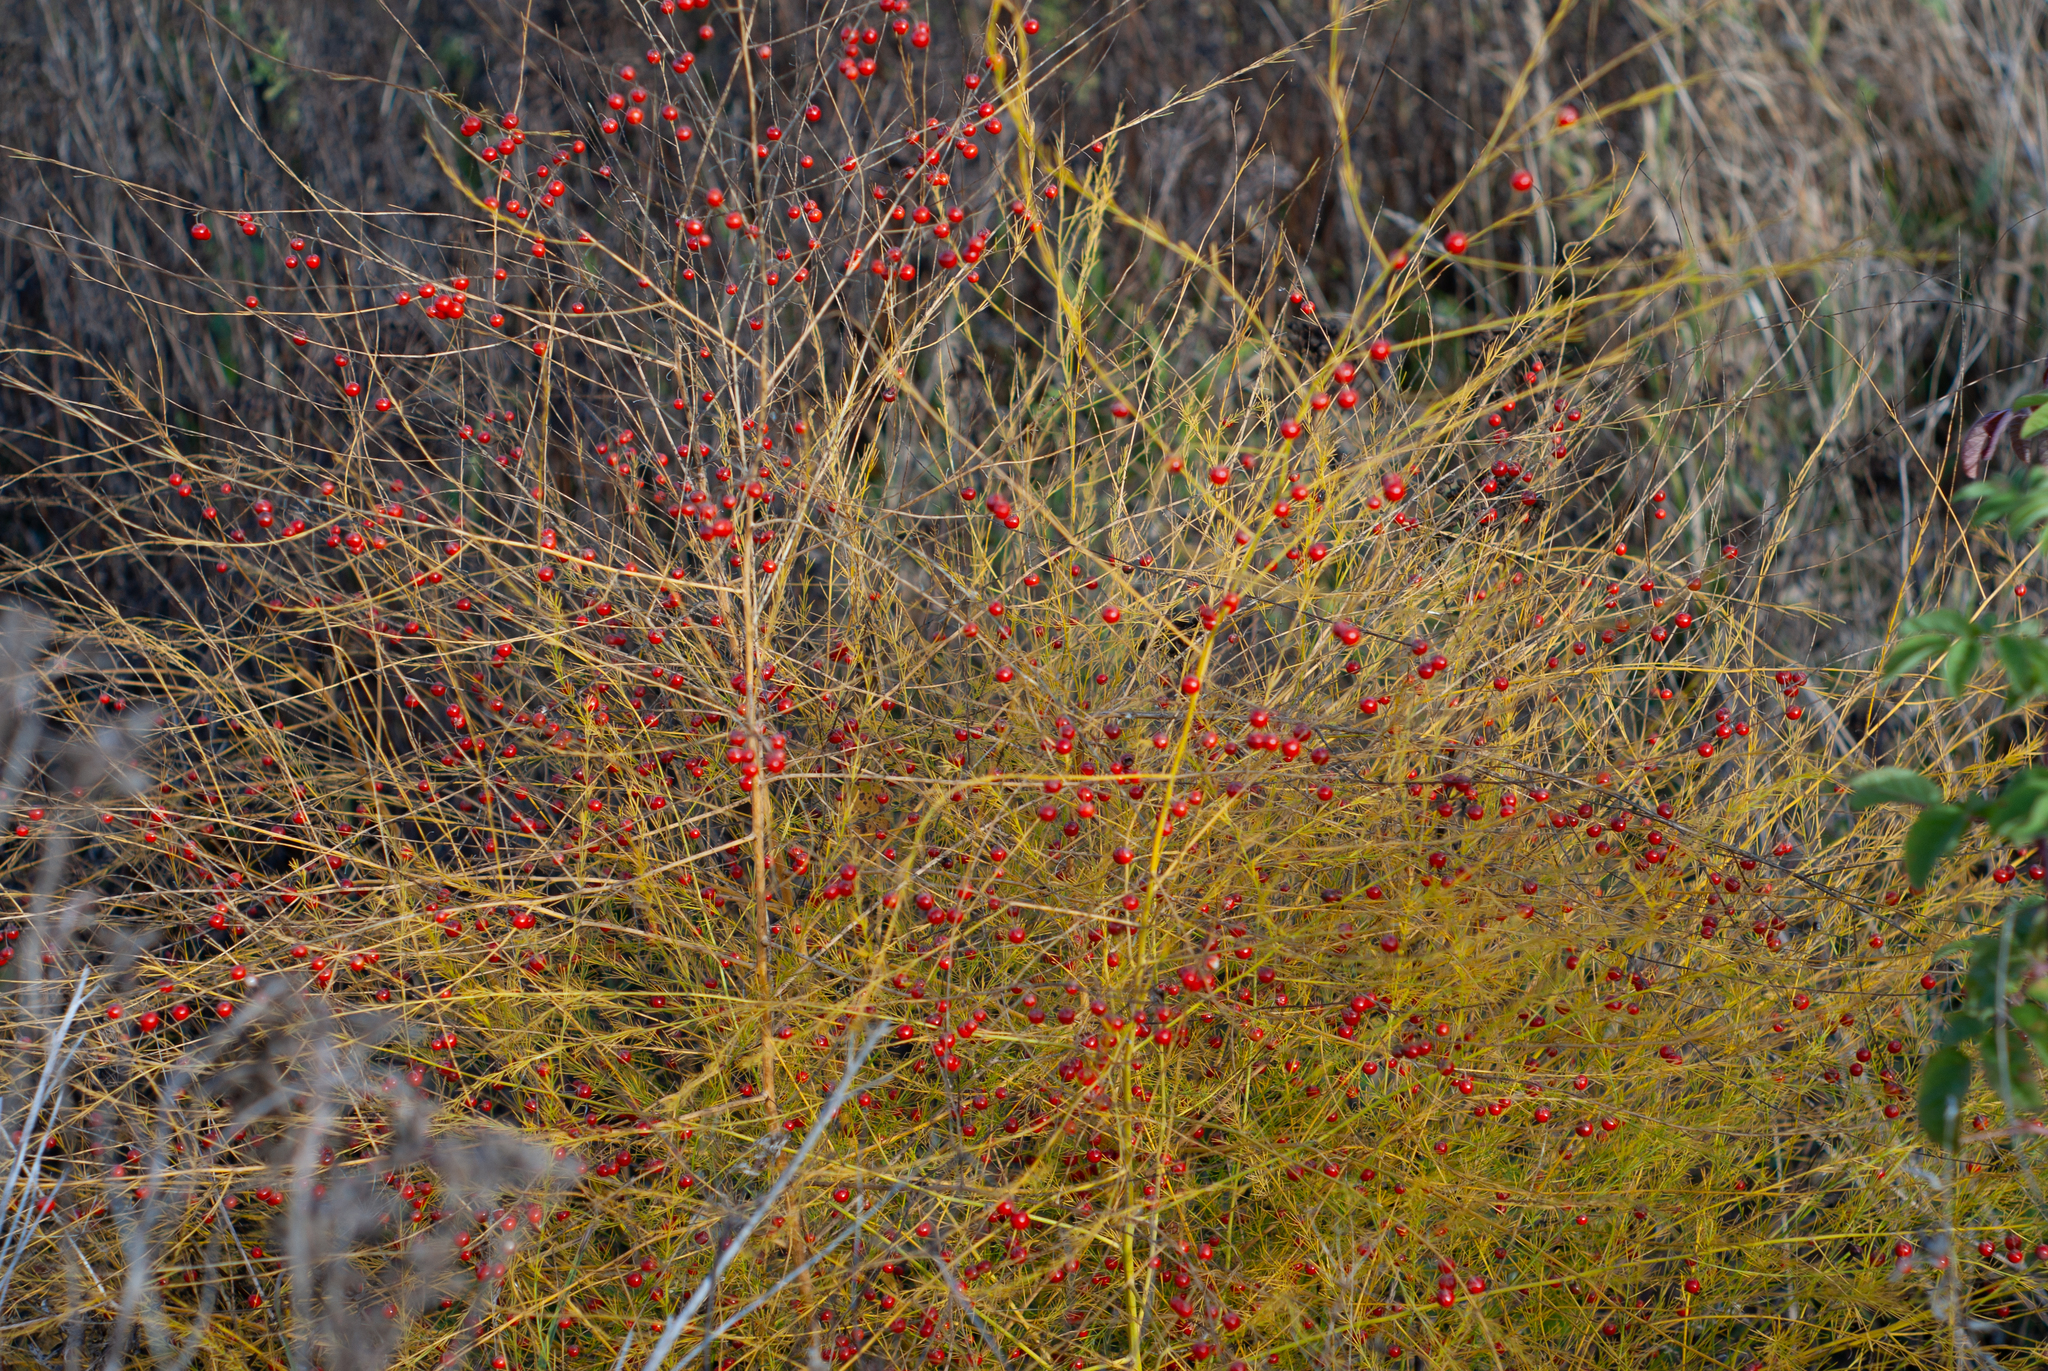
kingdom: Plantae
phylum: Tracheophyta
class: Liliopsida
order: Asparagales
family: Asparagaceae
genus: Asparagus
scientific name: Asparagus officinalis
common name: Garden asparagus
